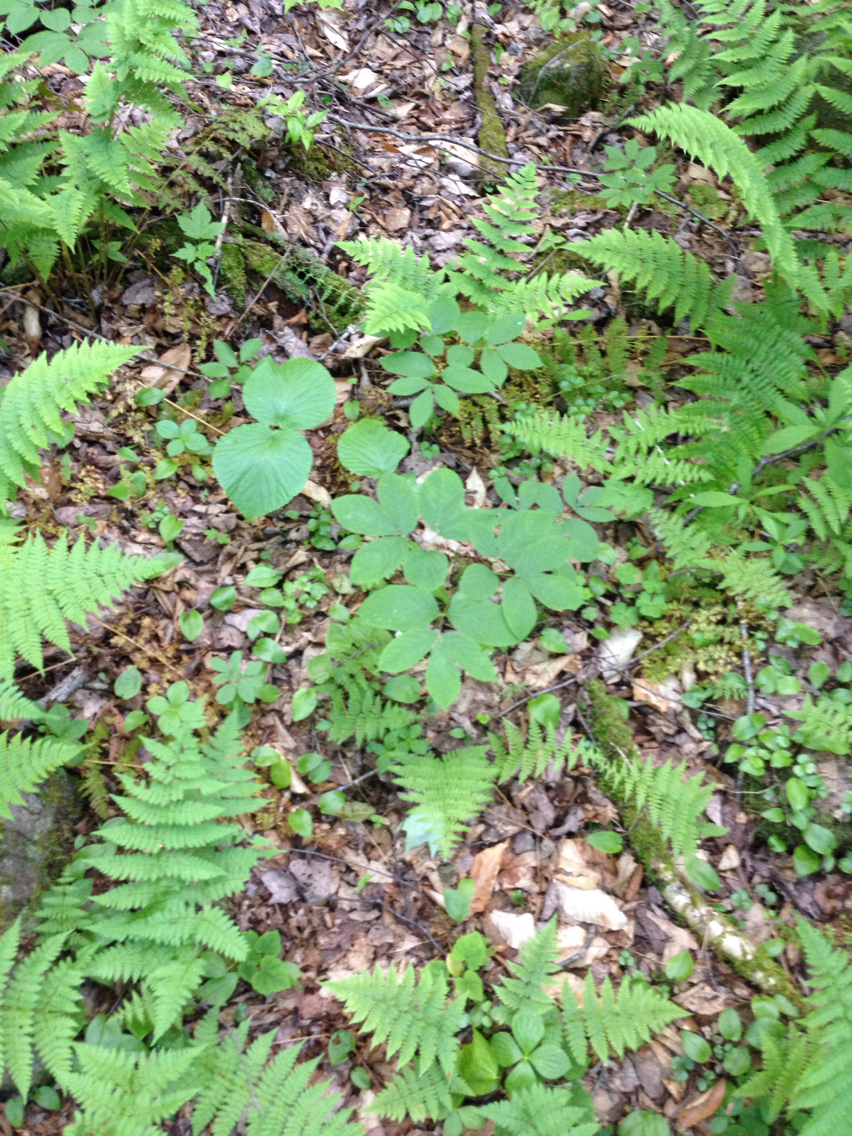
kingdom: Plantae
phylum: Tracheophyta
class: Magnoliopsida
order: Apiales
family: Araliaceae
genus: Aralia
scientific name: Aralia nudicaulis
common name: Wild sarsaparilla
